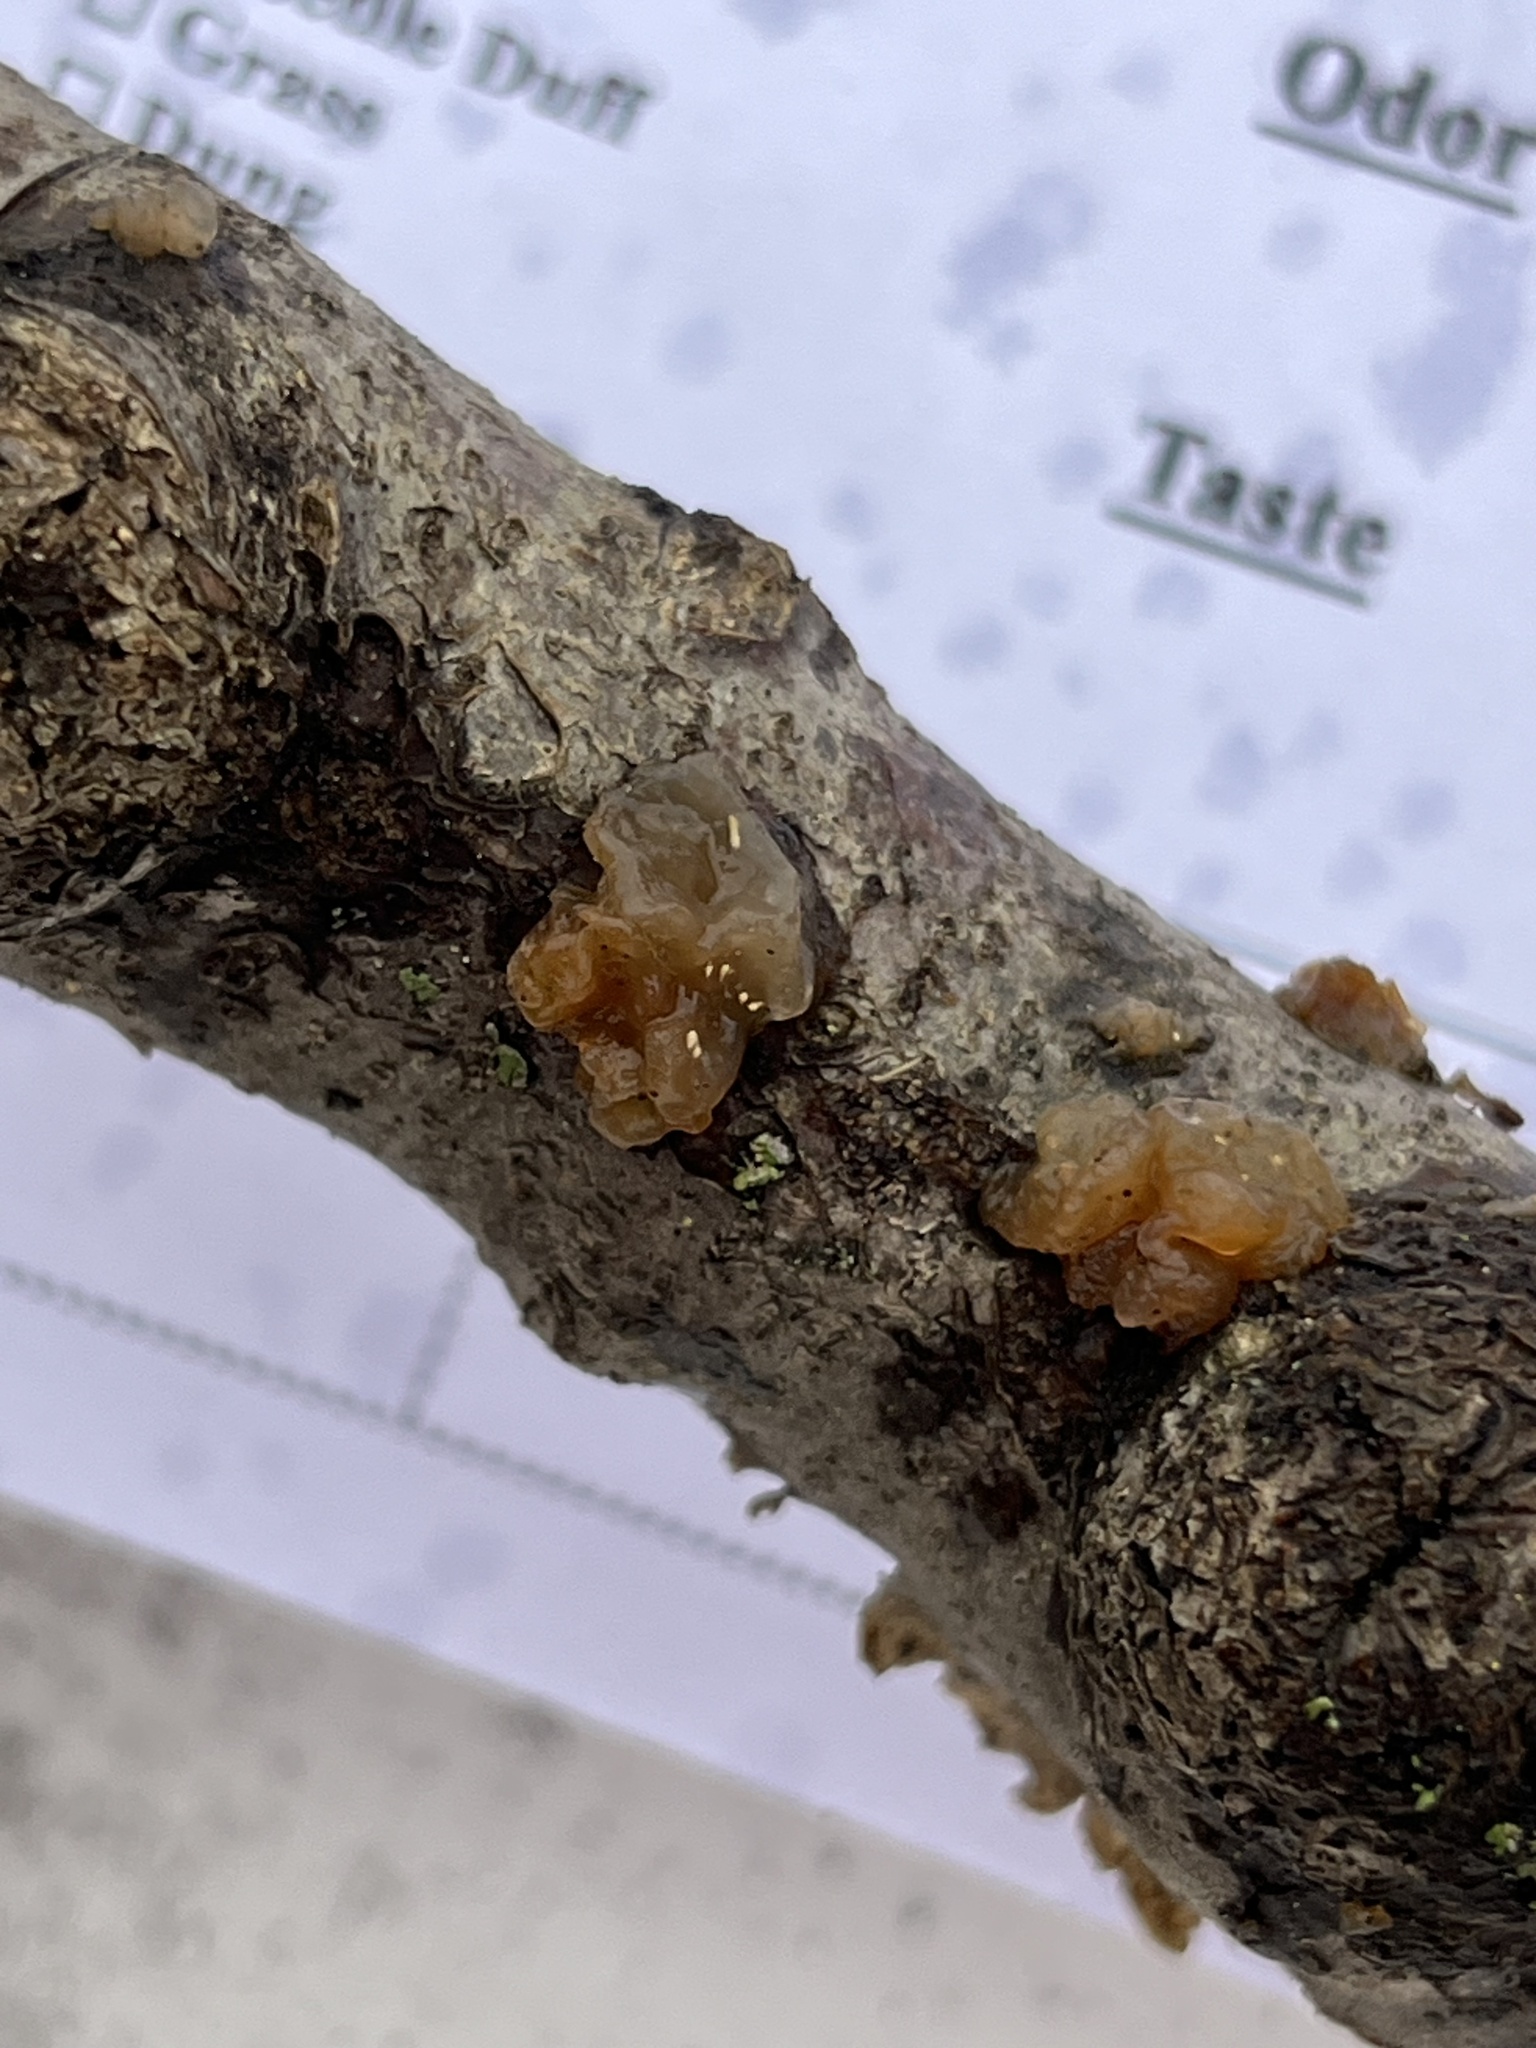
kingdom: Fungi
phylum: Basidiomycota
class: Agaricomycetes
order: Auriculariales
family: Hyaloriaceae
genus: Myxarium
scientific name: Myxarium nucleatum
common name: Crystal brain fungus
